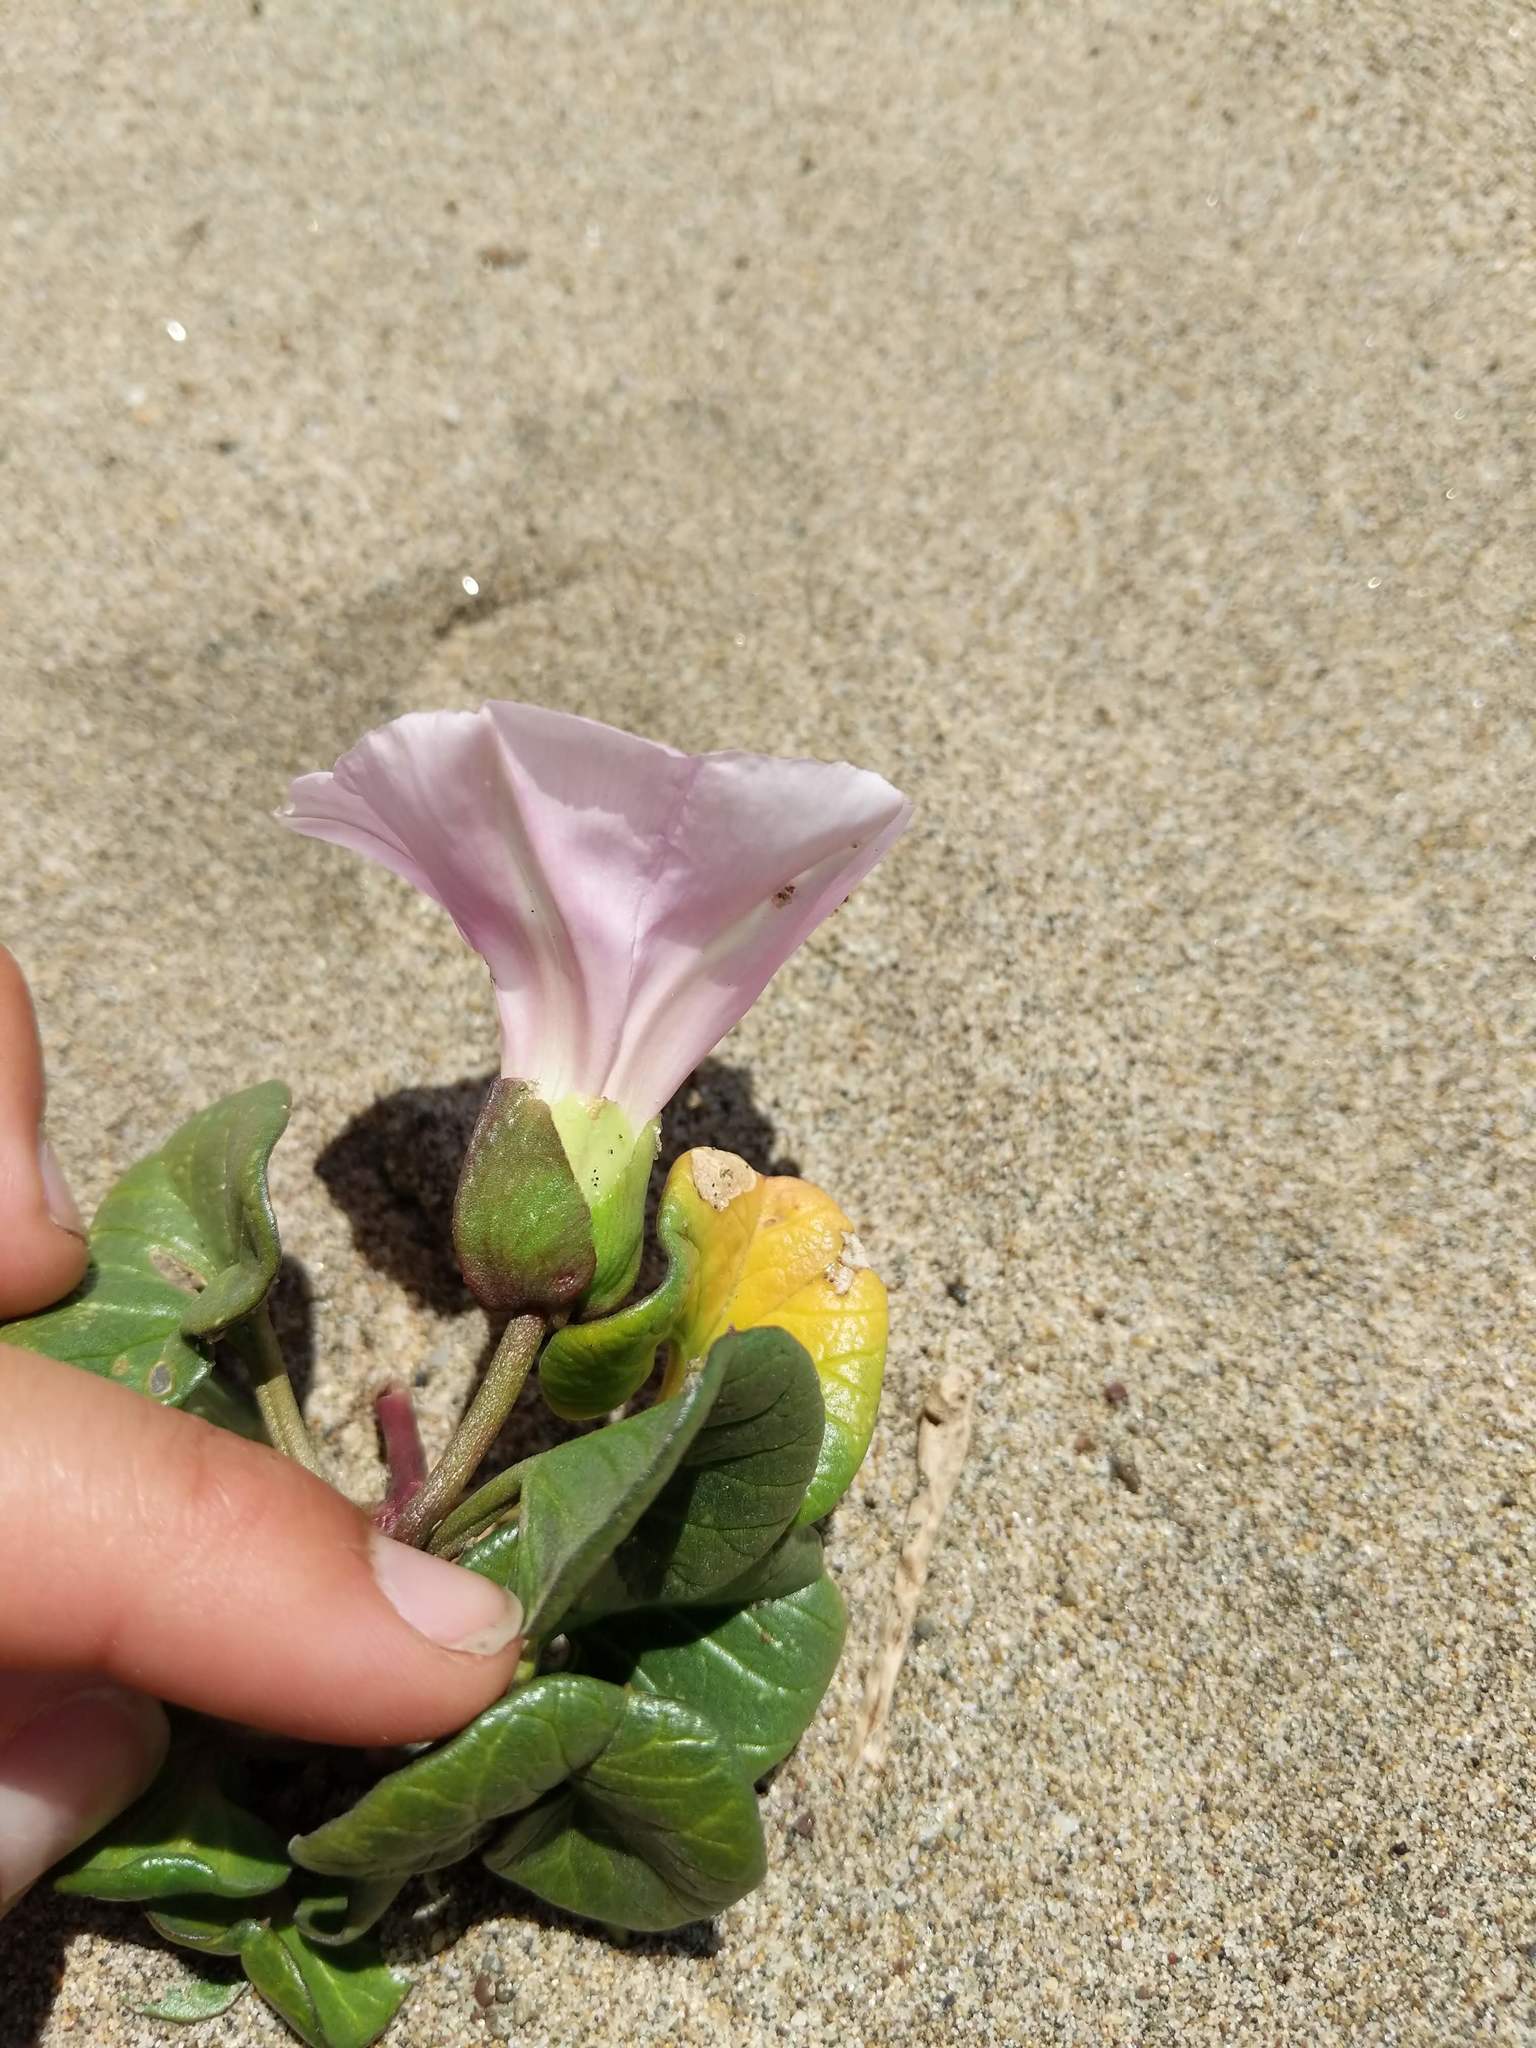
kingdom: Plantae
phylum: Tracheophyta
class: Magnoliopsida
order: Solanales
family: Convolvulaceae
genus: Calystegia
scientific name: Calystegia soldanella
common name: Sea bindweed
